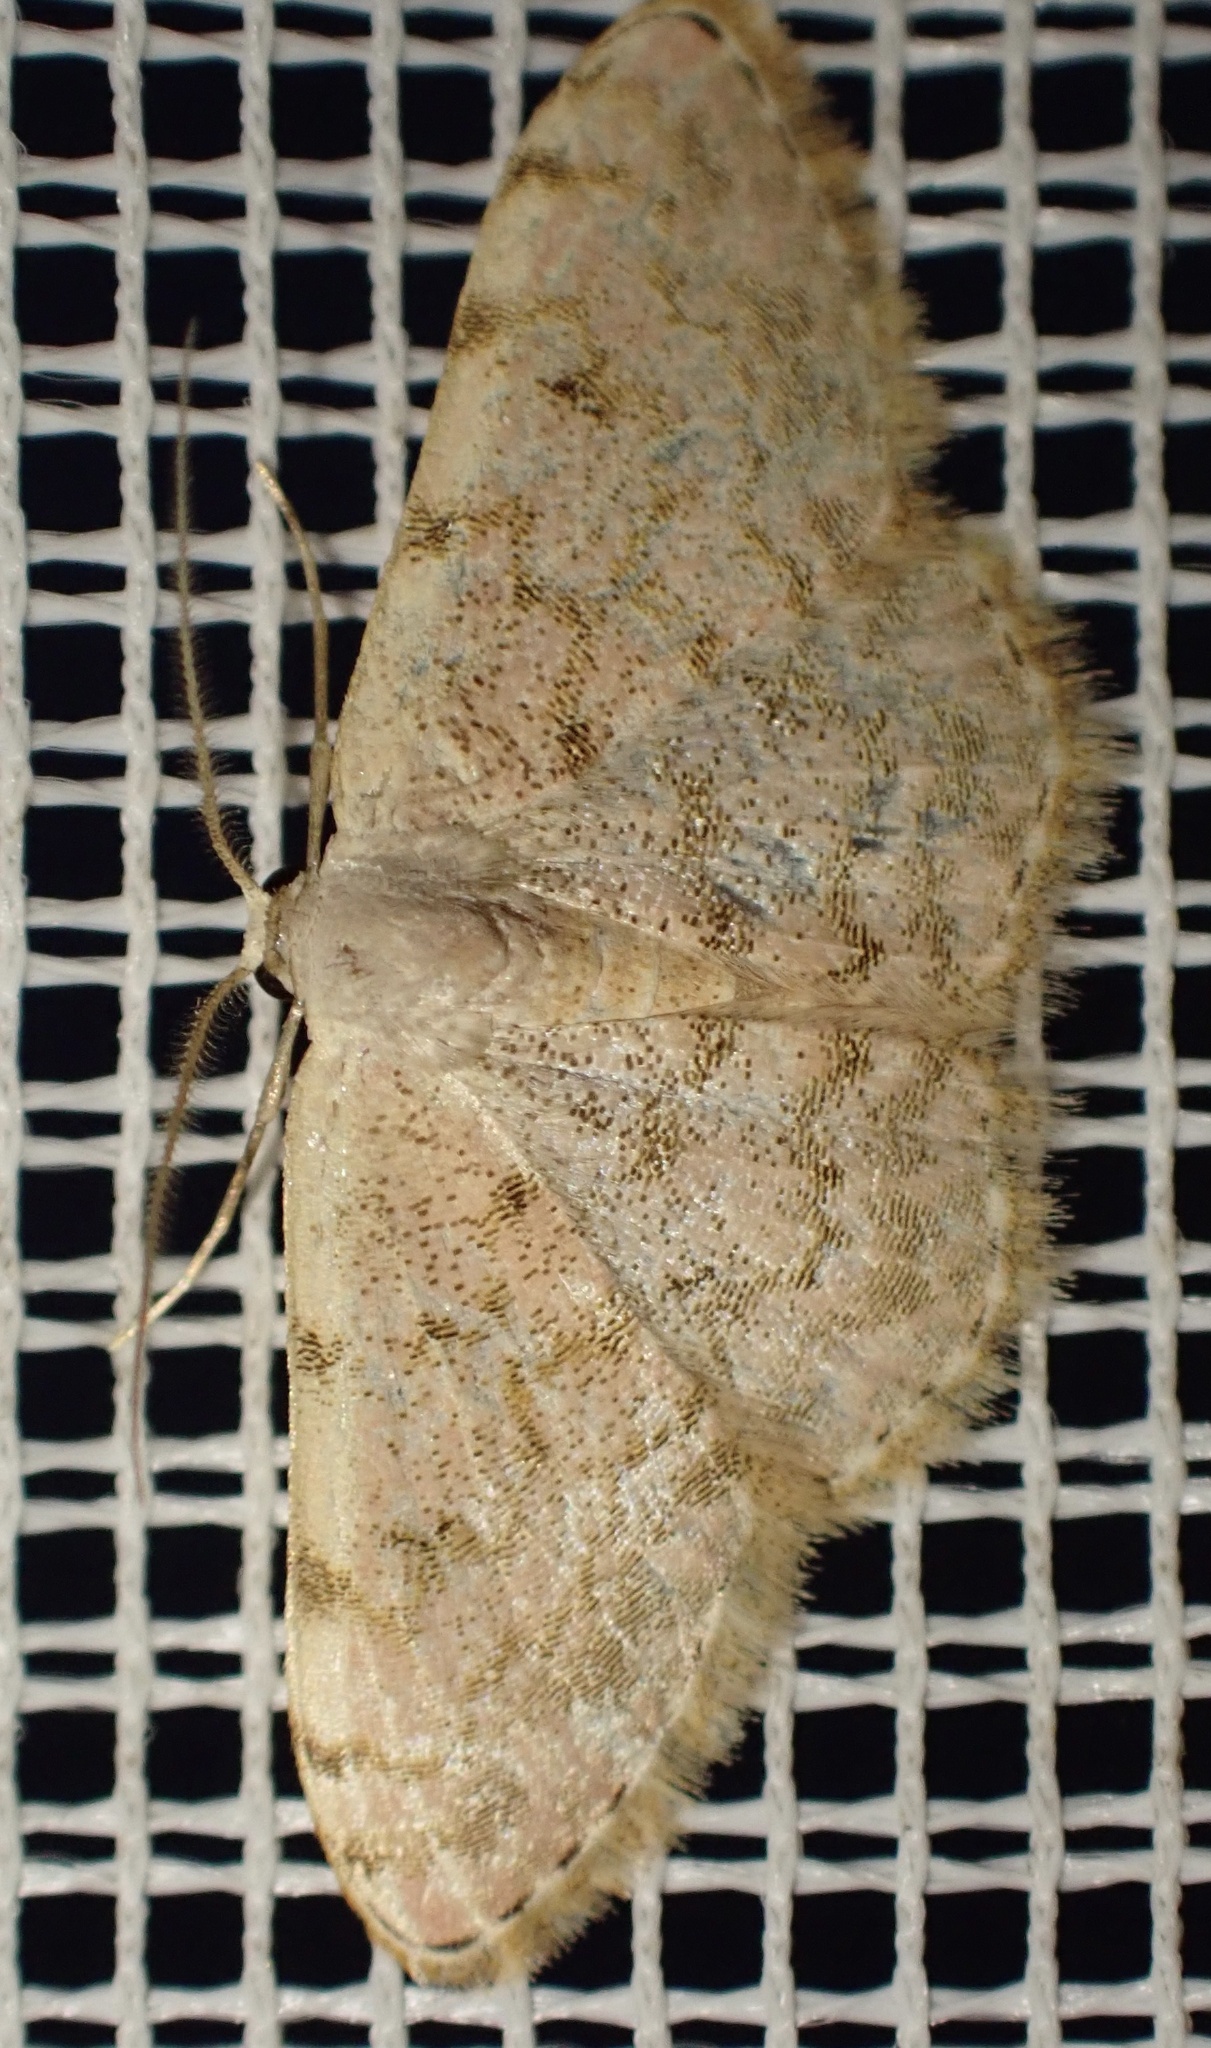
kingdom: Animalia
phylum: Arthropoda
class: Insecta
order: Lepidoptera
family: Geometridae
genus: Glossotrophia
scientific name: Glossotrophia asellaria
